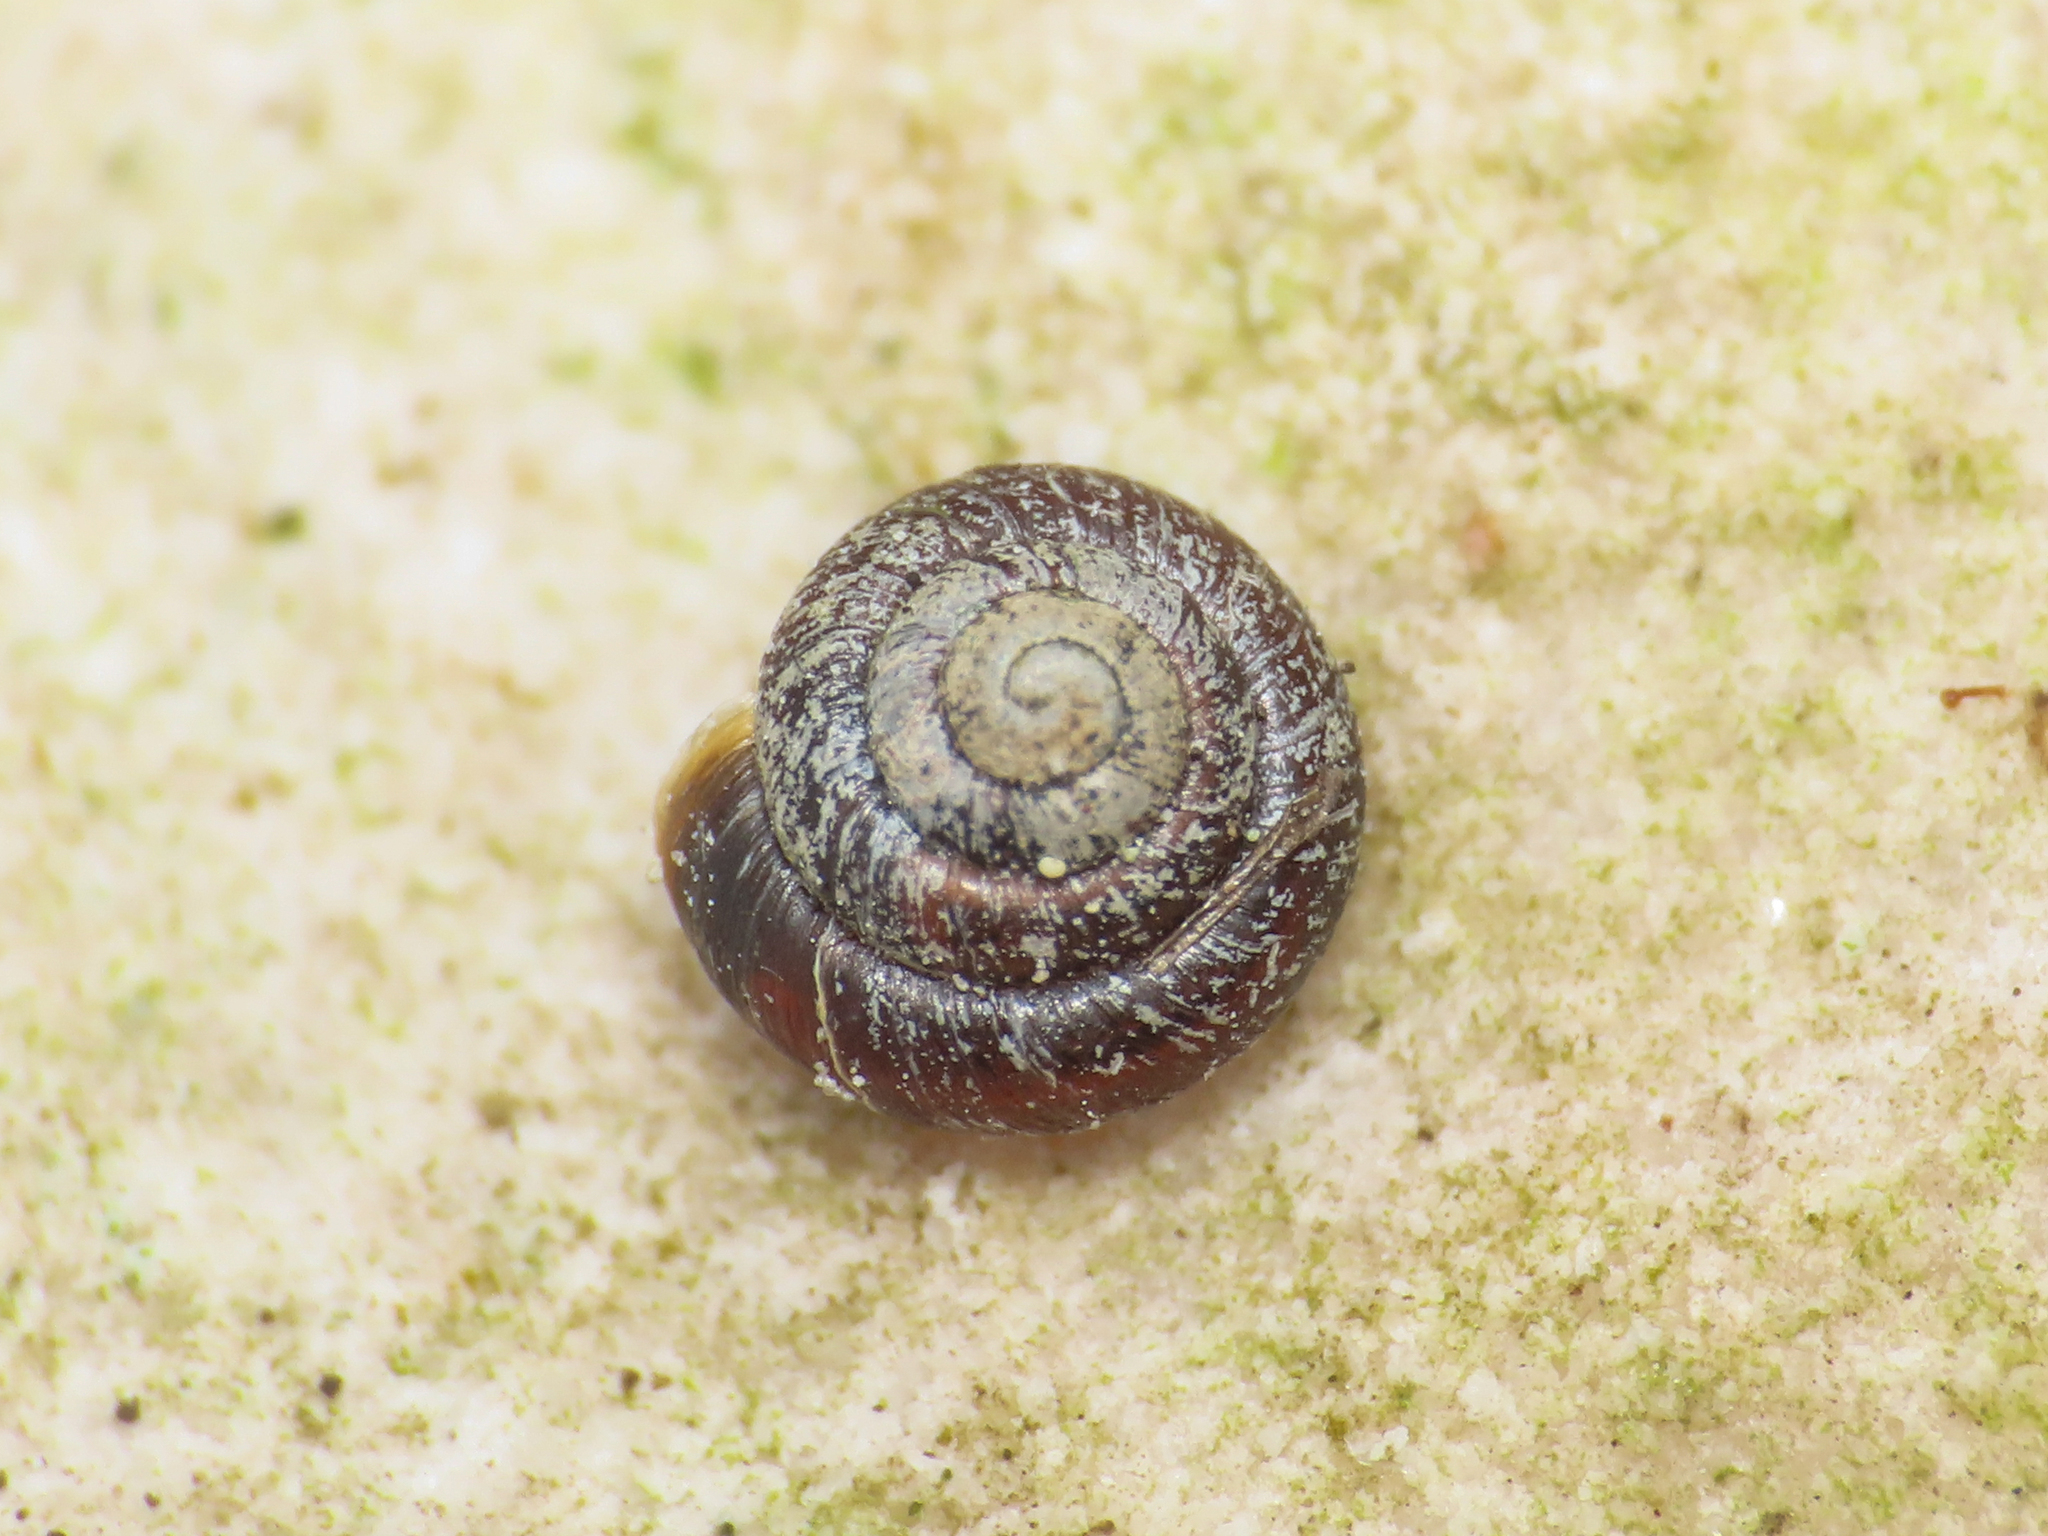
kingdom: Animalia
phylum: Mollusca
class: Gastropoda
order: Stylommatophora
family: Pyramidulidae
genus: Pyramidula
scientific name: Pyramidula pusilla
